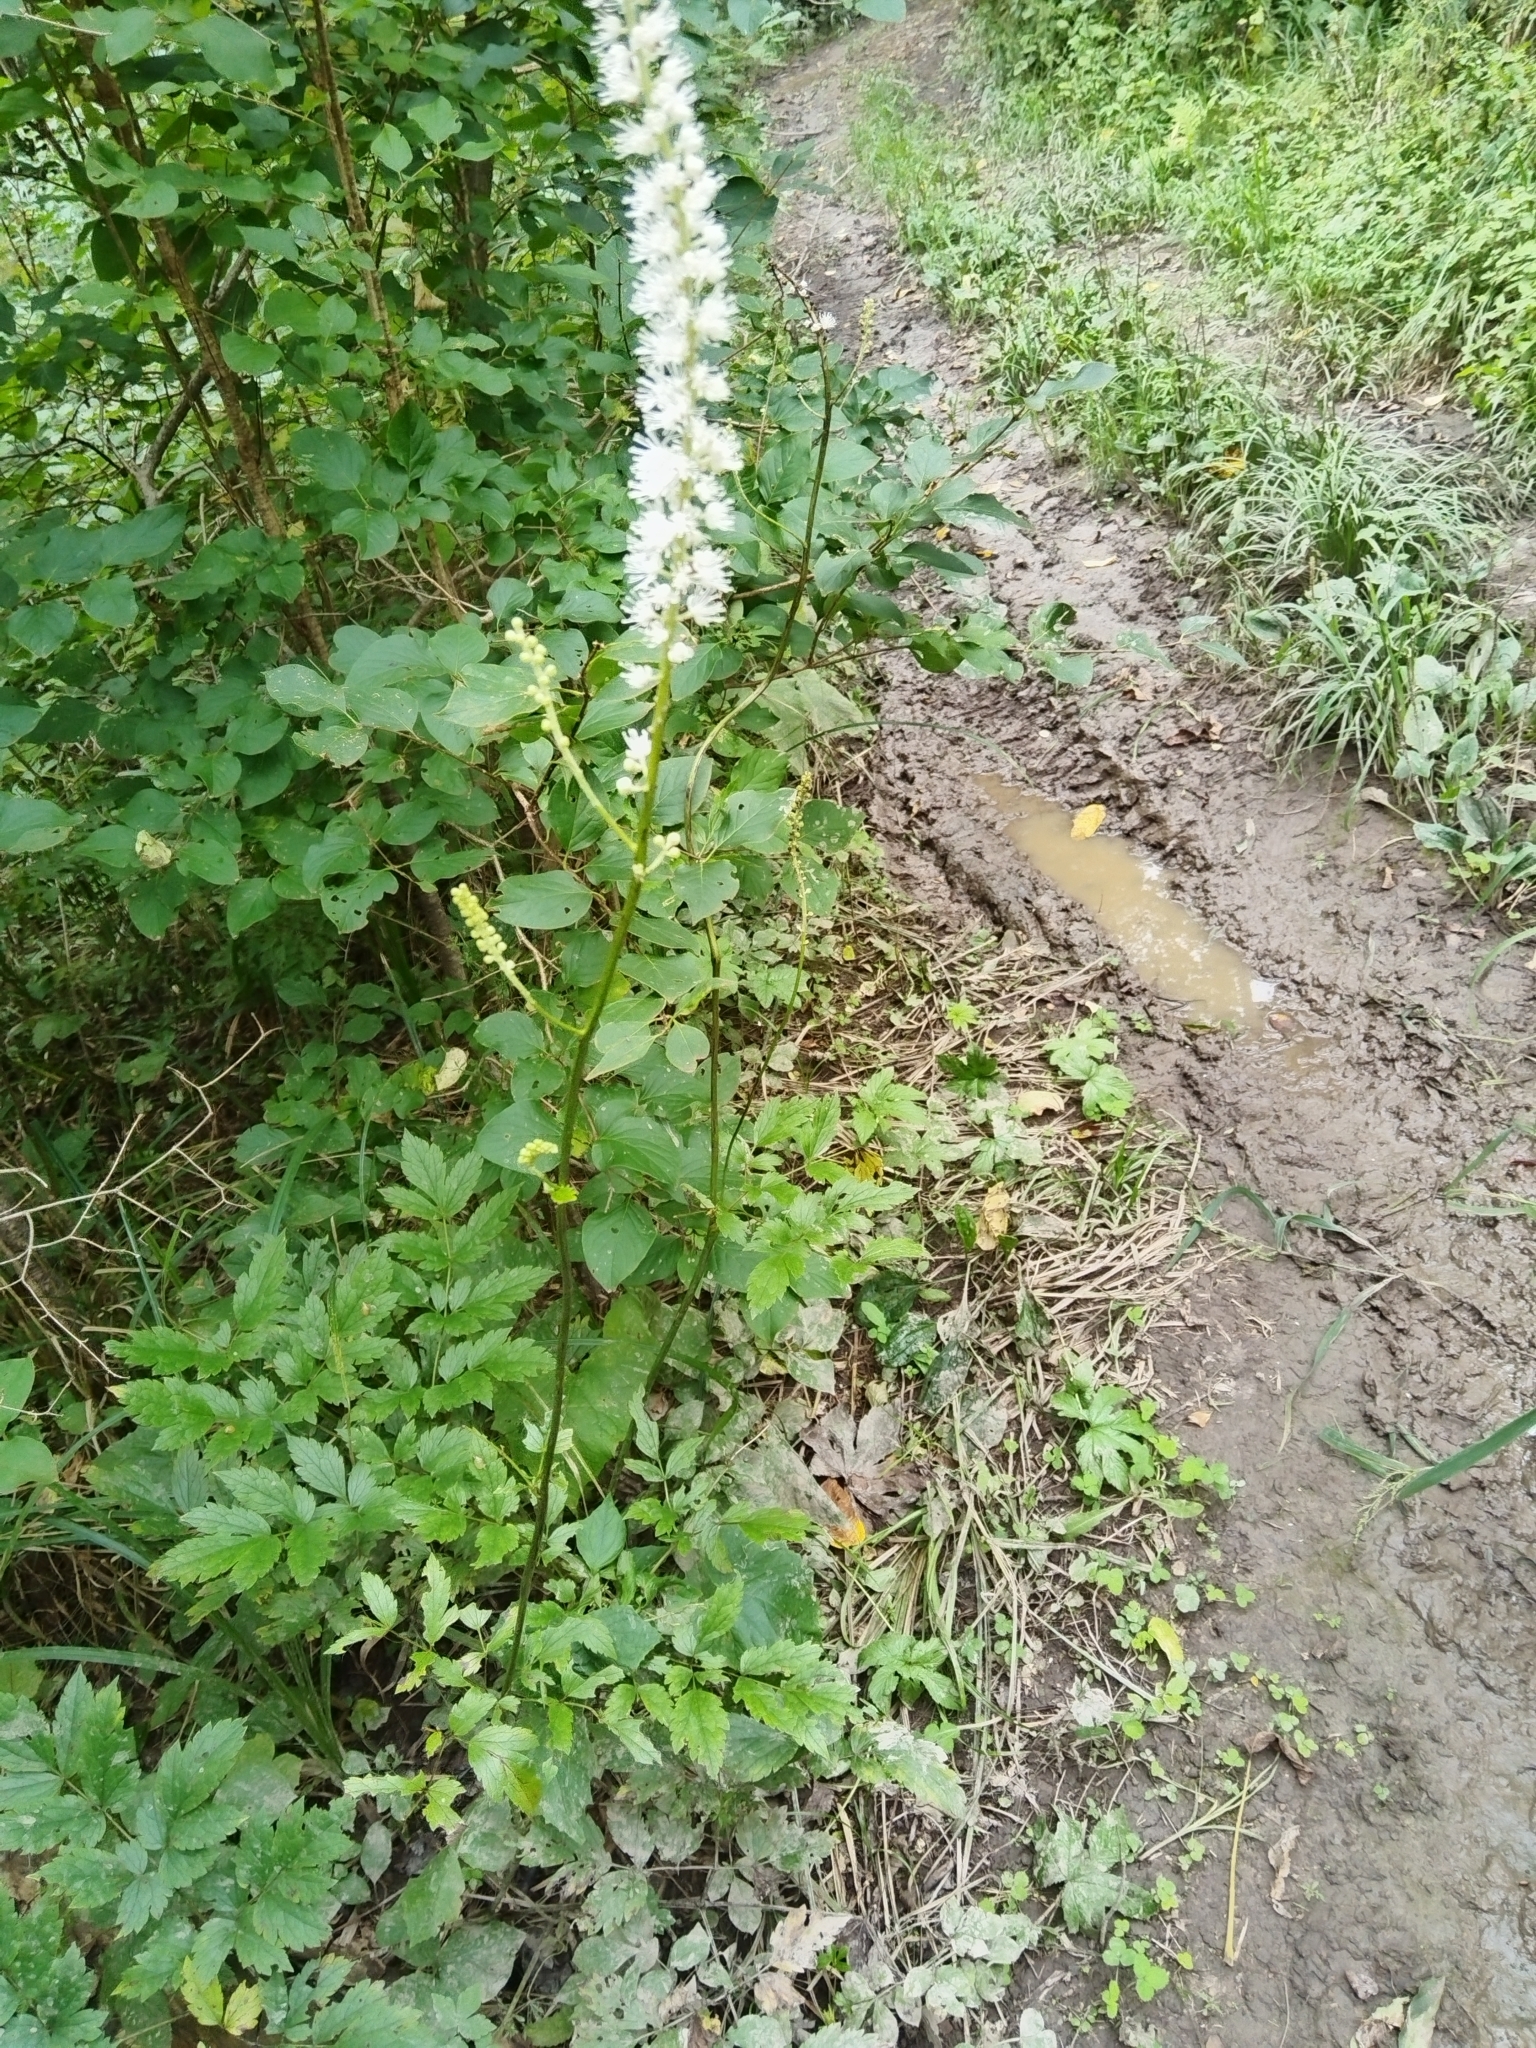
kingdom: Plantae
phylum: Tracheophyta
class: Magnoliopsida
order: Ranunculales
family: Ranunculaceae
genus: Actaea
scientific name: Actaea simplex
